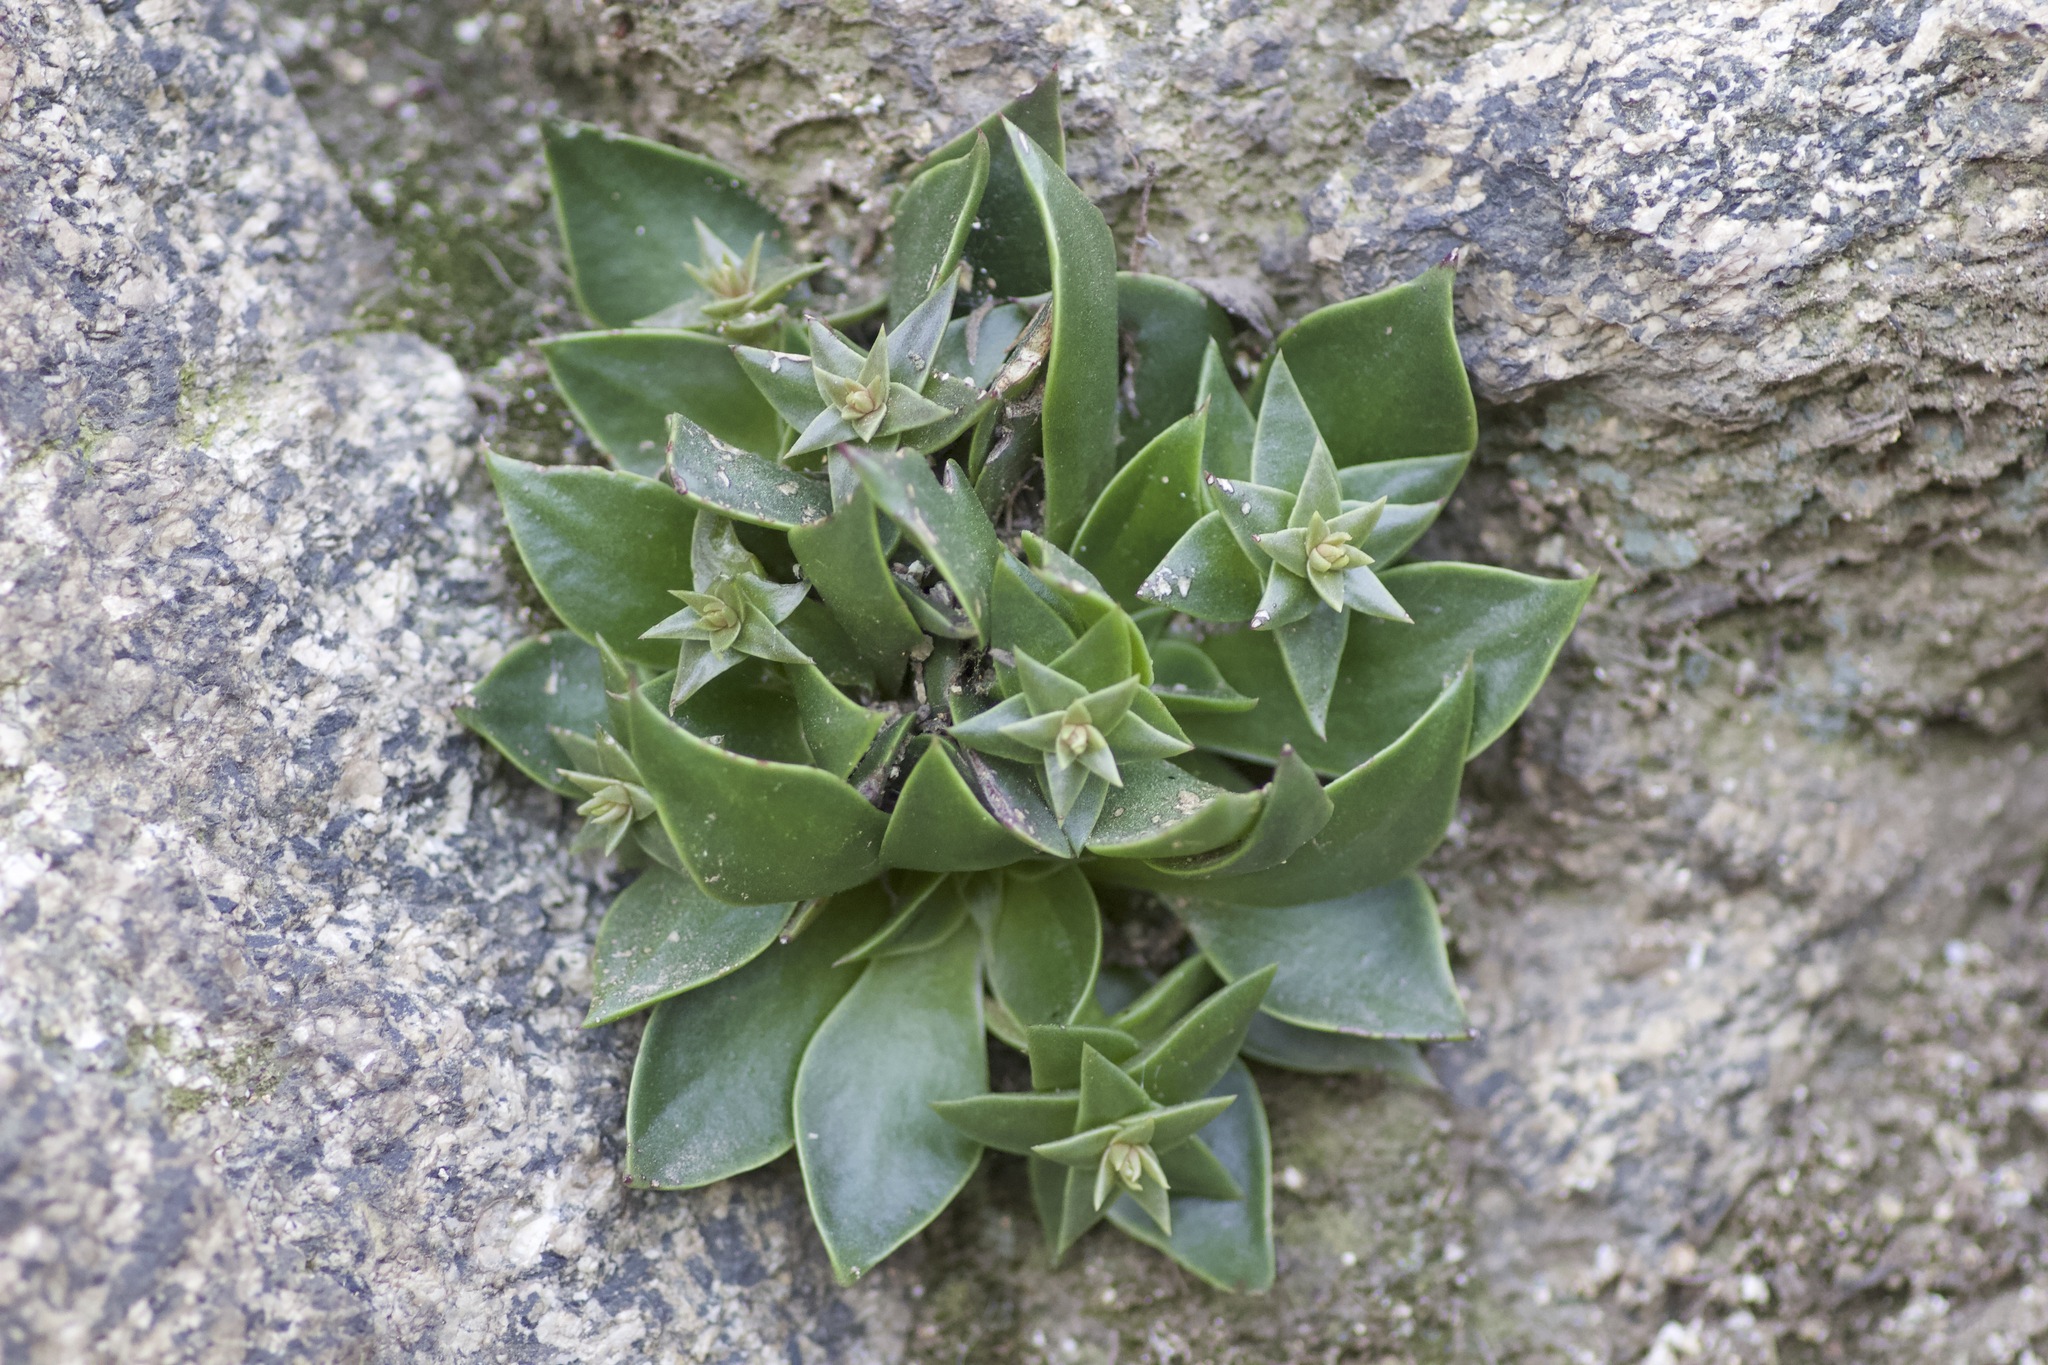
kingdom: Plantae
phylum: Tracheophyta
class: Magnoliopsida
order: Saxifragales
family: Crassulaceae
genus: Dudleya
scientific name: Dudleya cymosa
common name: Canyon dudleya
